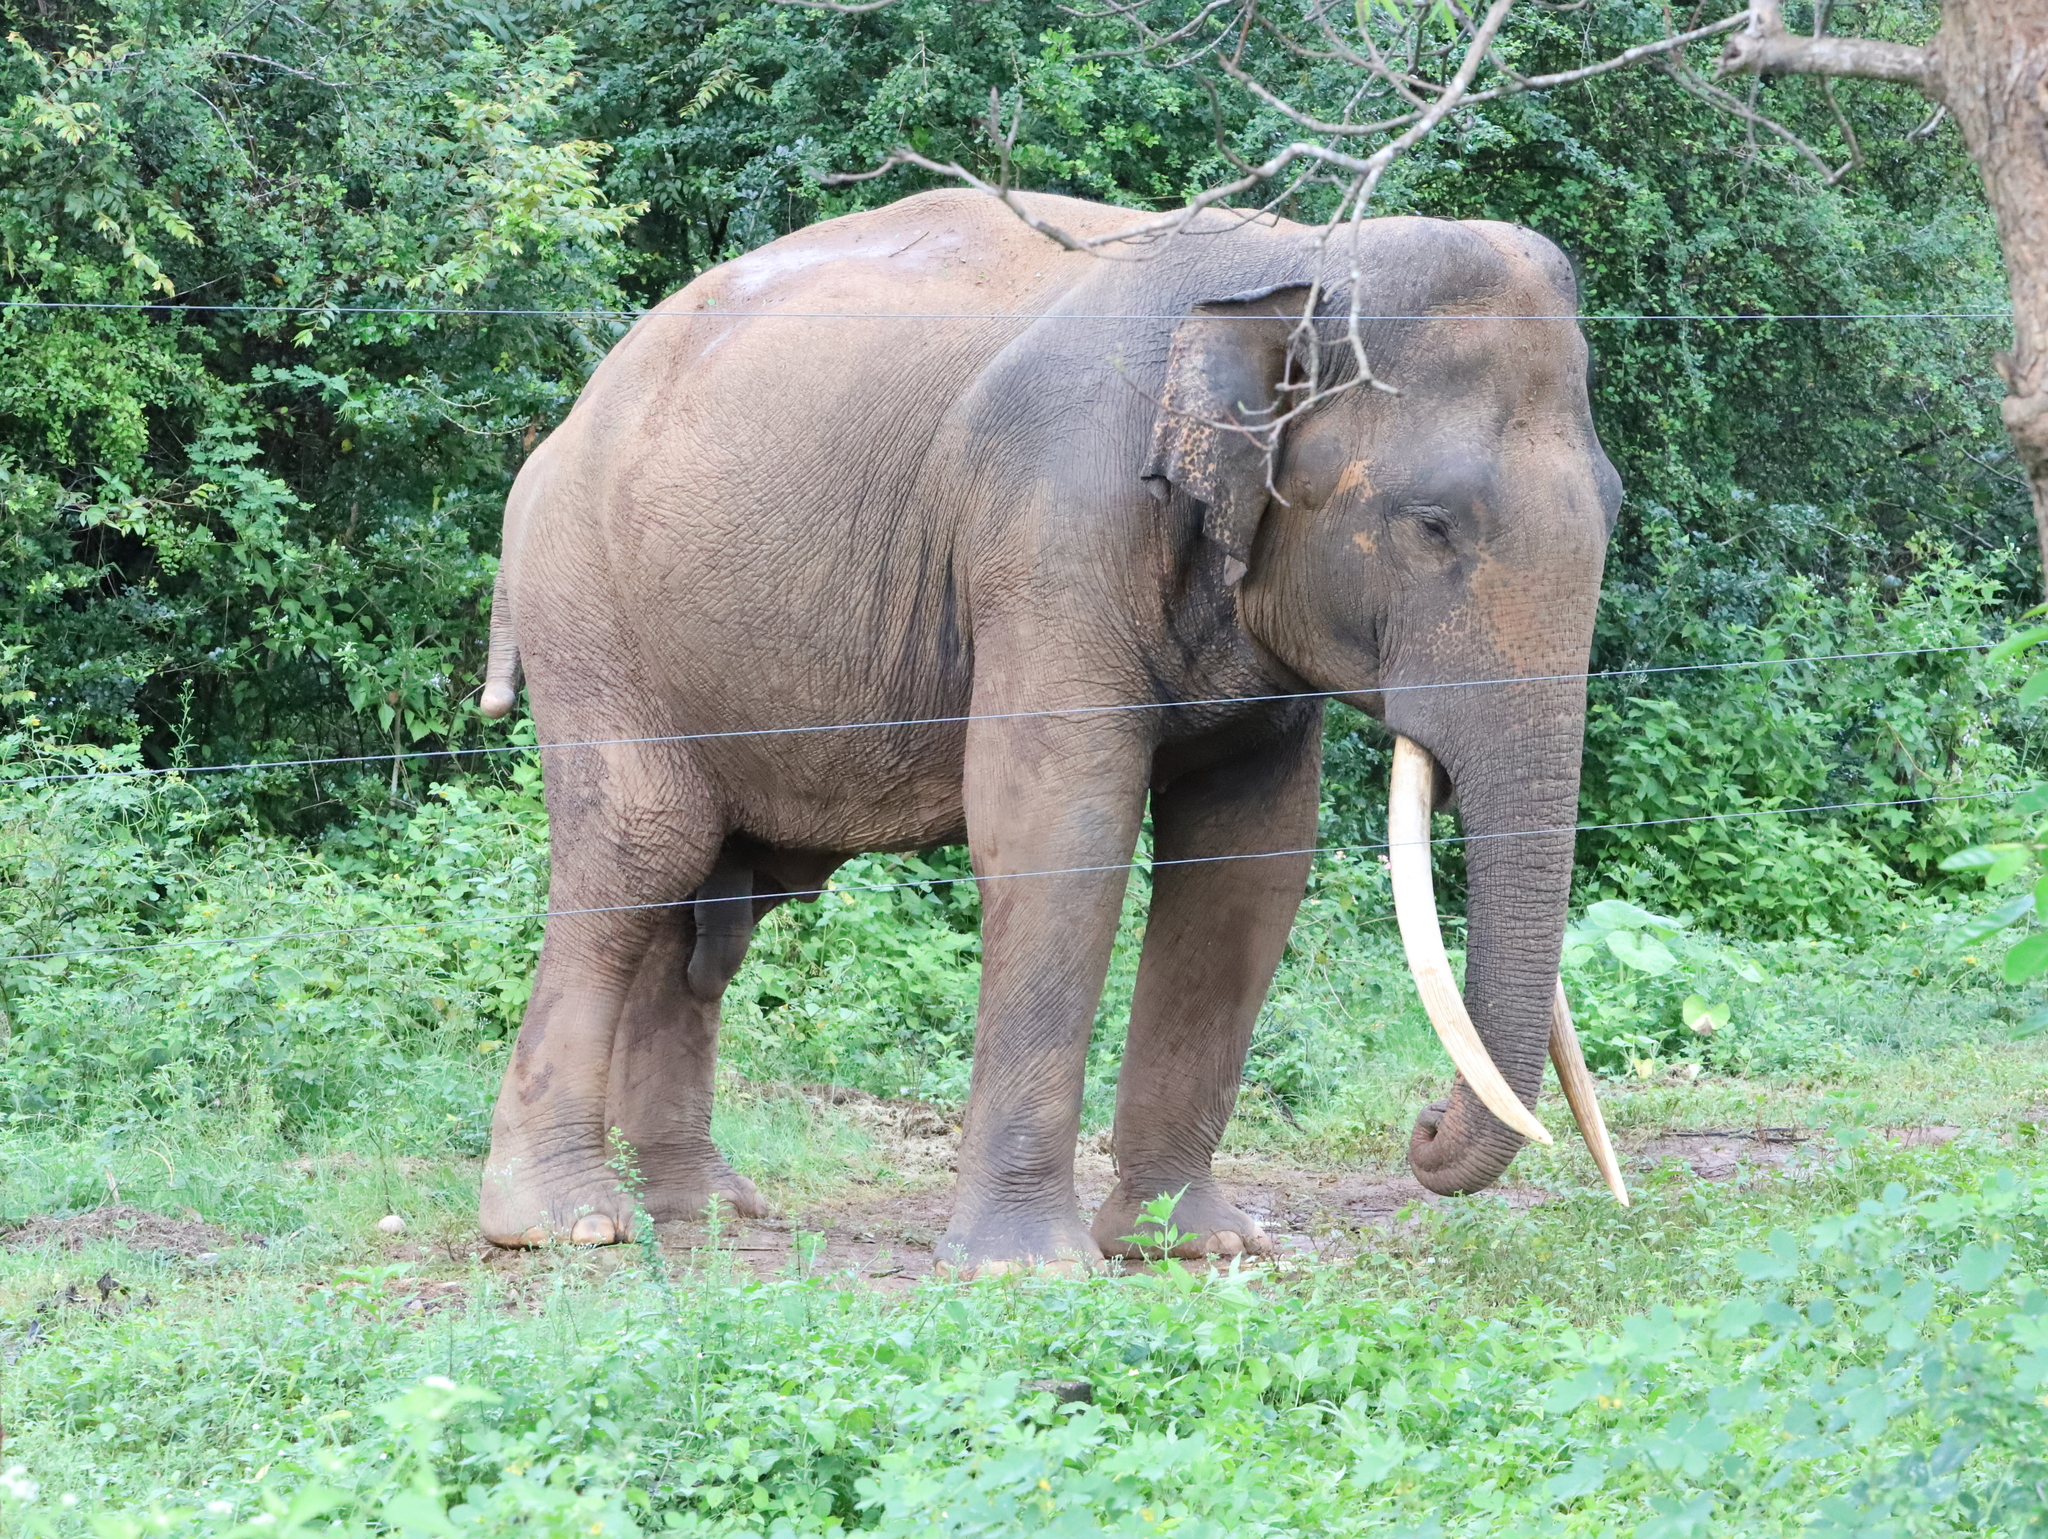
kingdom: Animalia
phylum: Chordata
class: Mammalia
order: Proboscidea
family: Elephantidae
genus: Elephas
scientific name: Elephas maximus
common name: Asian elephant
